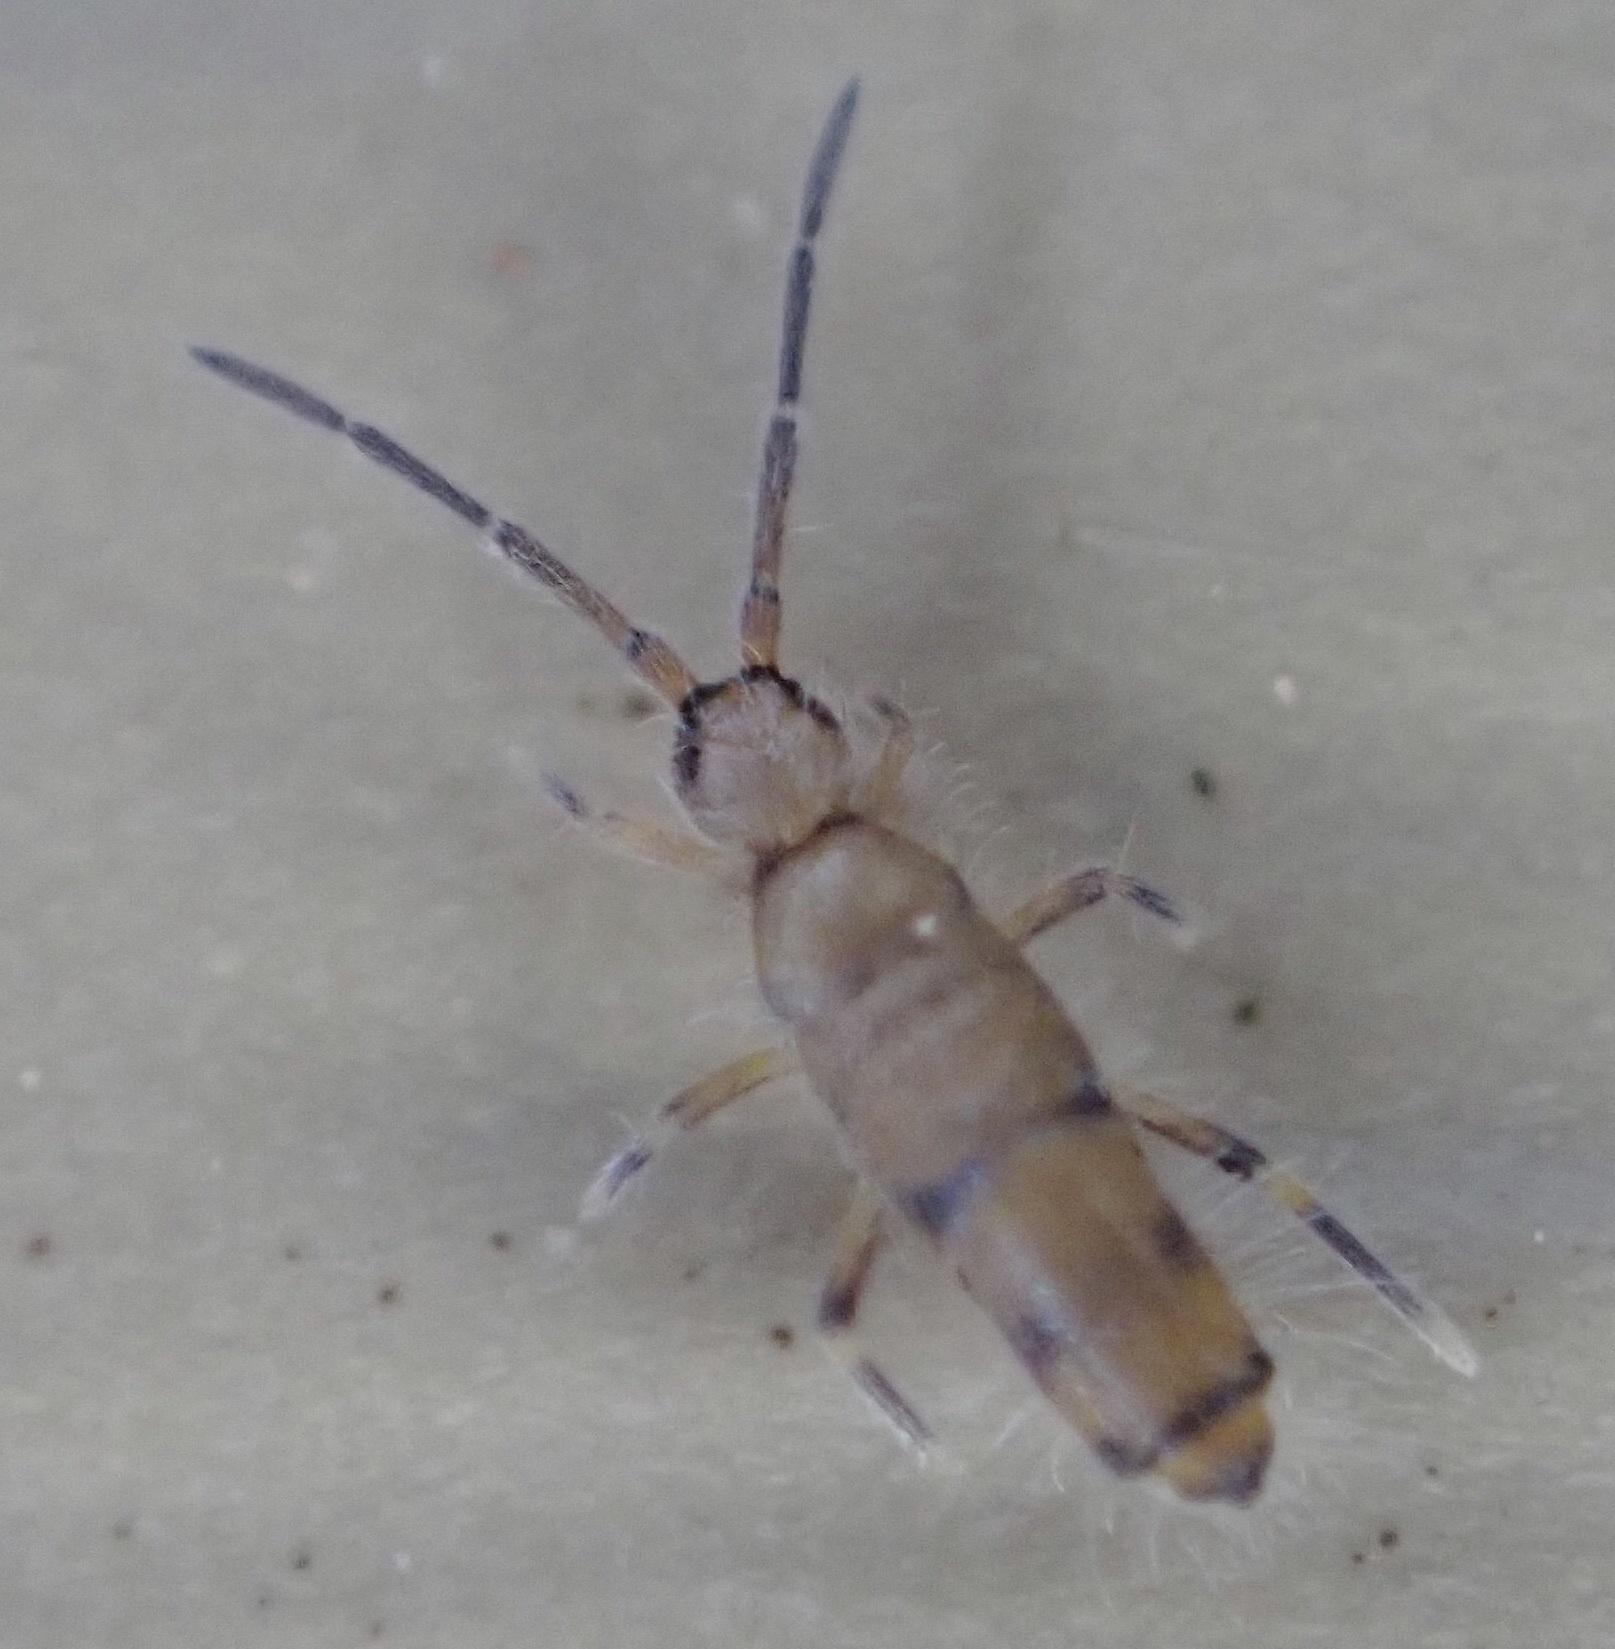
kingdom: Animalia
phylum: Arthropoda
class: Collembola
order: Entomobryomorpha
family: Entomobryidae
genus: Willowsia
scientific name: Willowsia nigromaculata
